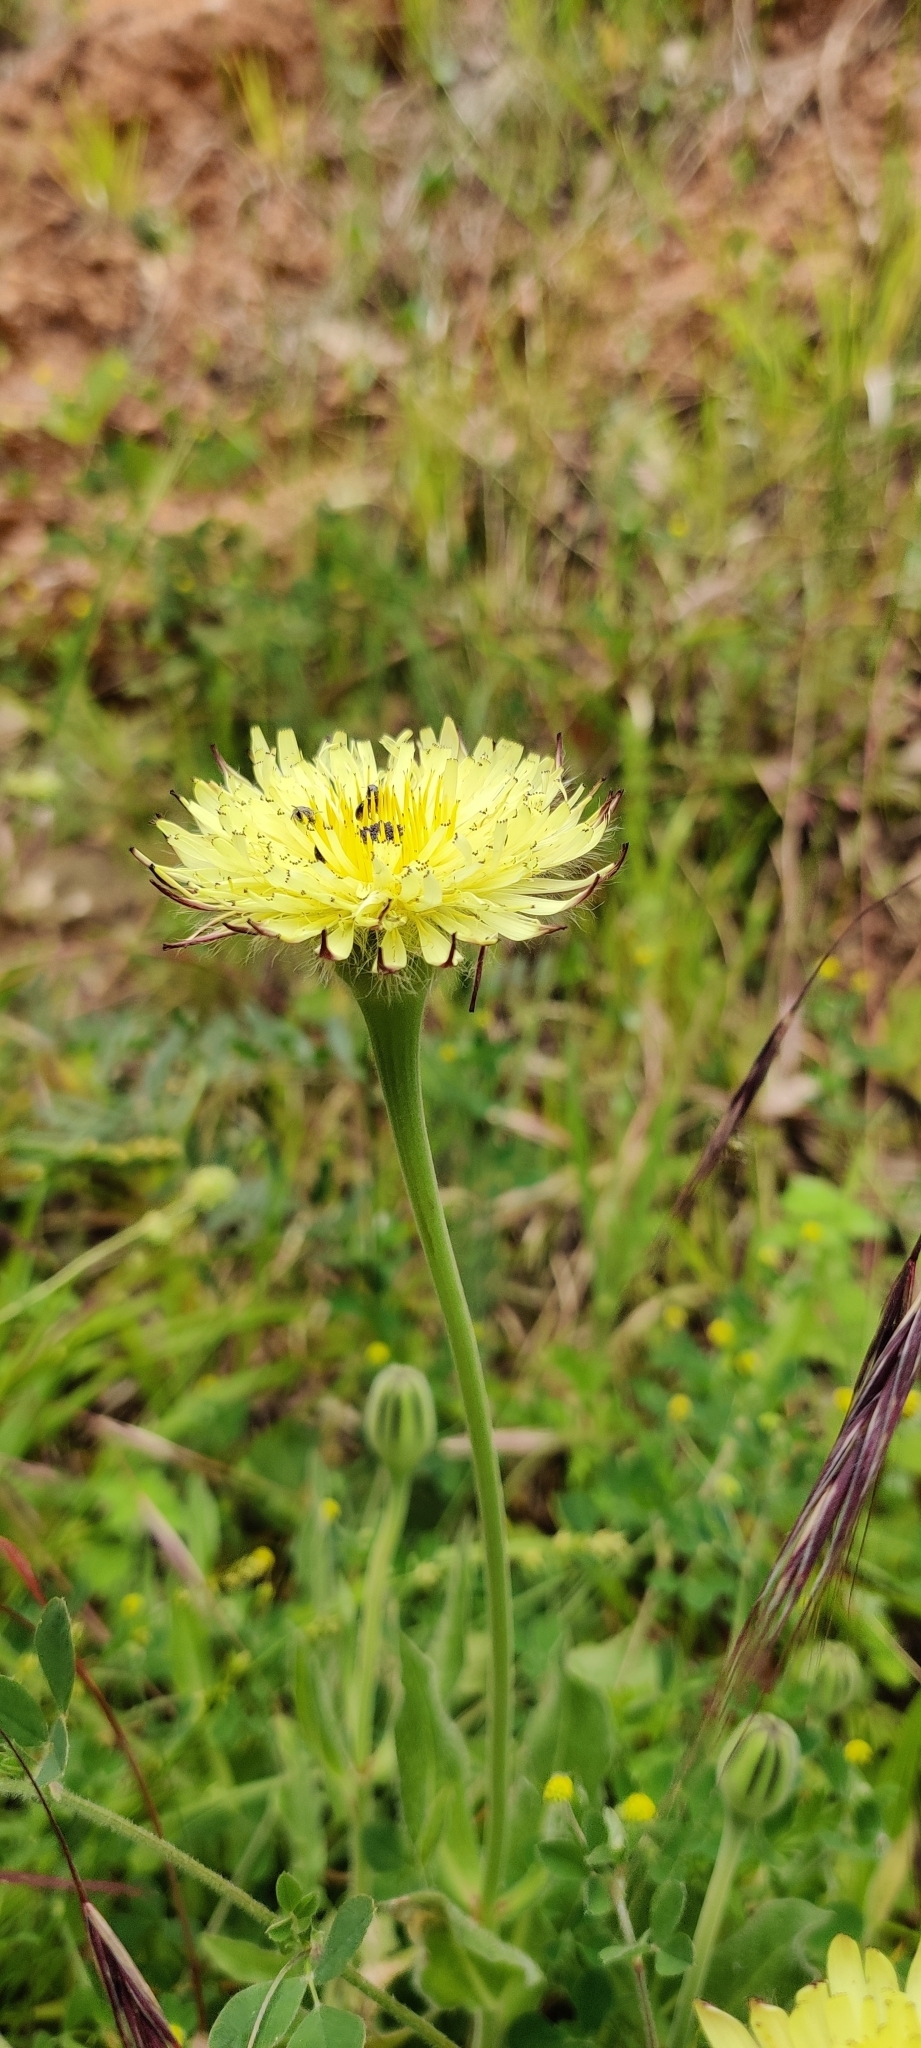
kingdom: Plantae
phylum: Tracheophyta
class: Magnoliopsida
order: Asterales
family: Asteraceae
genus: Urospermum
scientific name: Urospermum dalechampii
